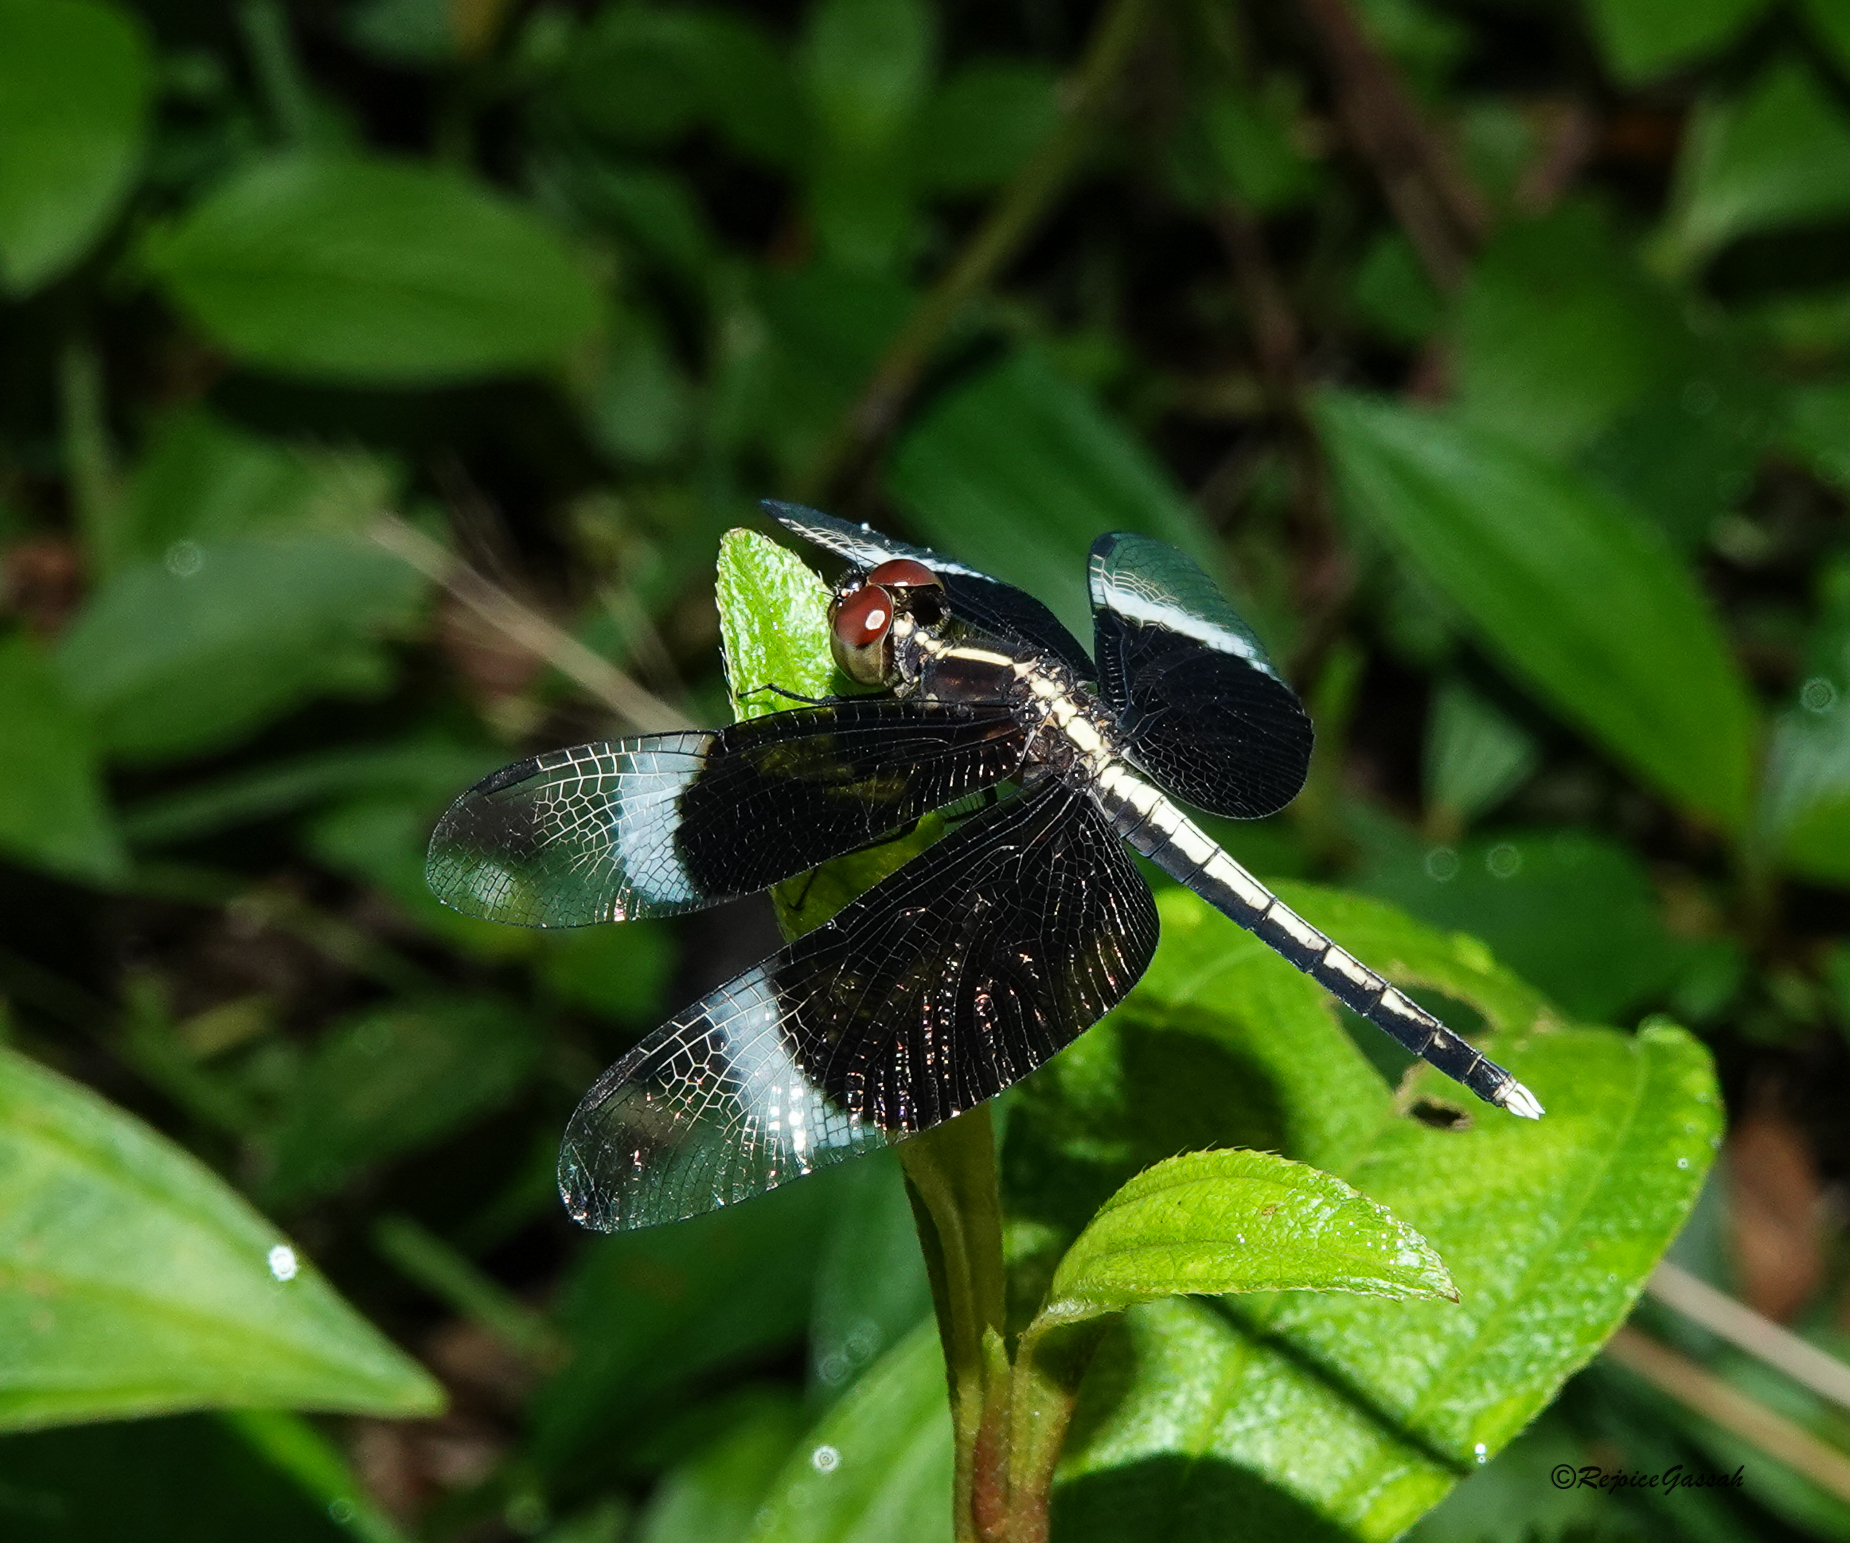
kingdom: Animalia
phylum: Arthropoda
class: Insecta
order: Odonata
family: Libellulidae
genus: Neurothemis
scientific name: Neurothemis tullia
